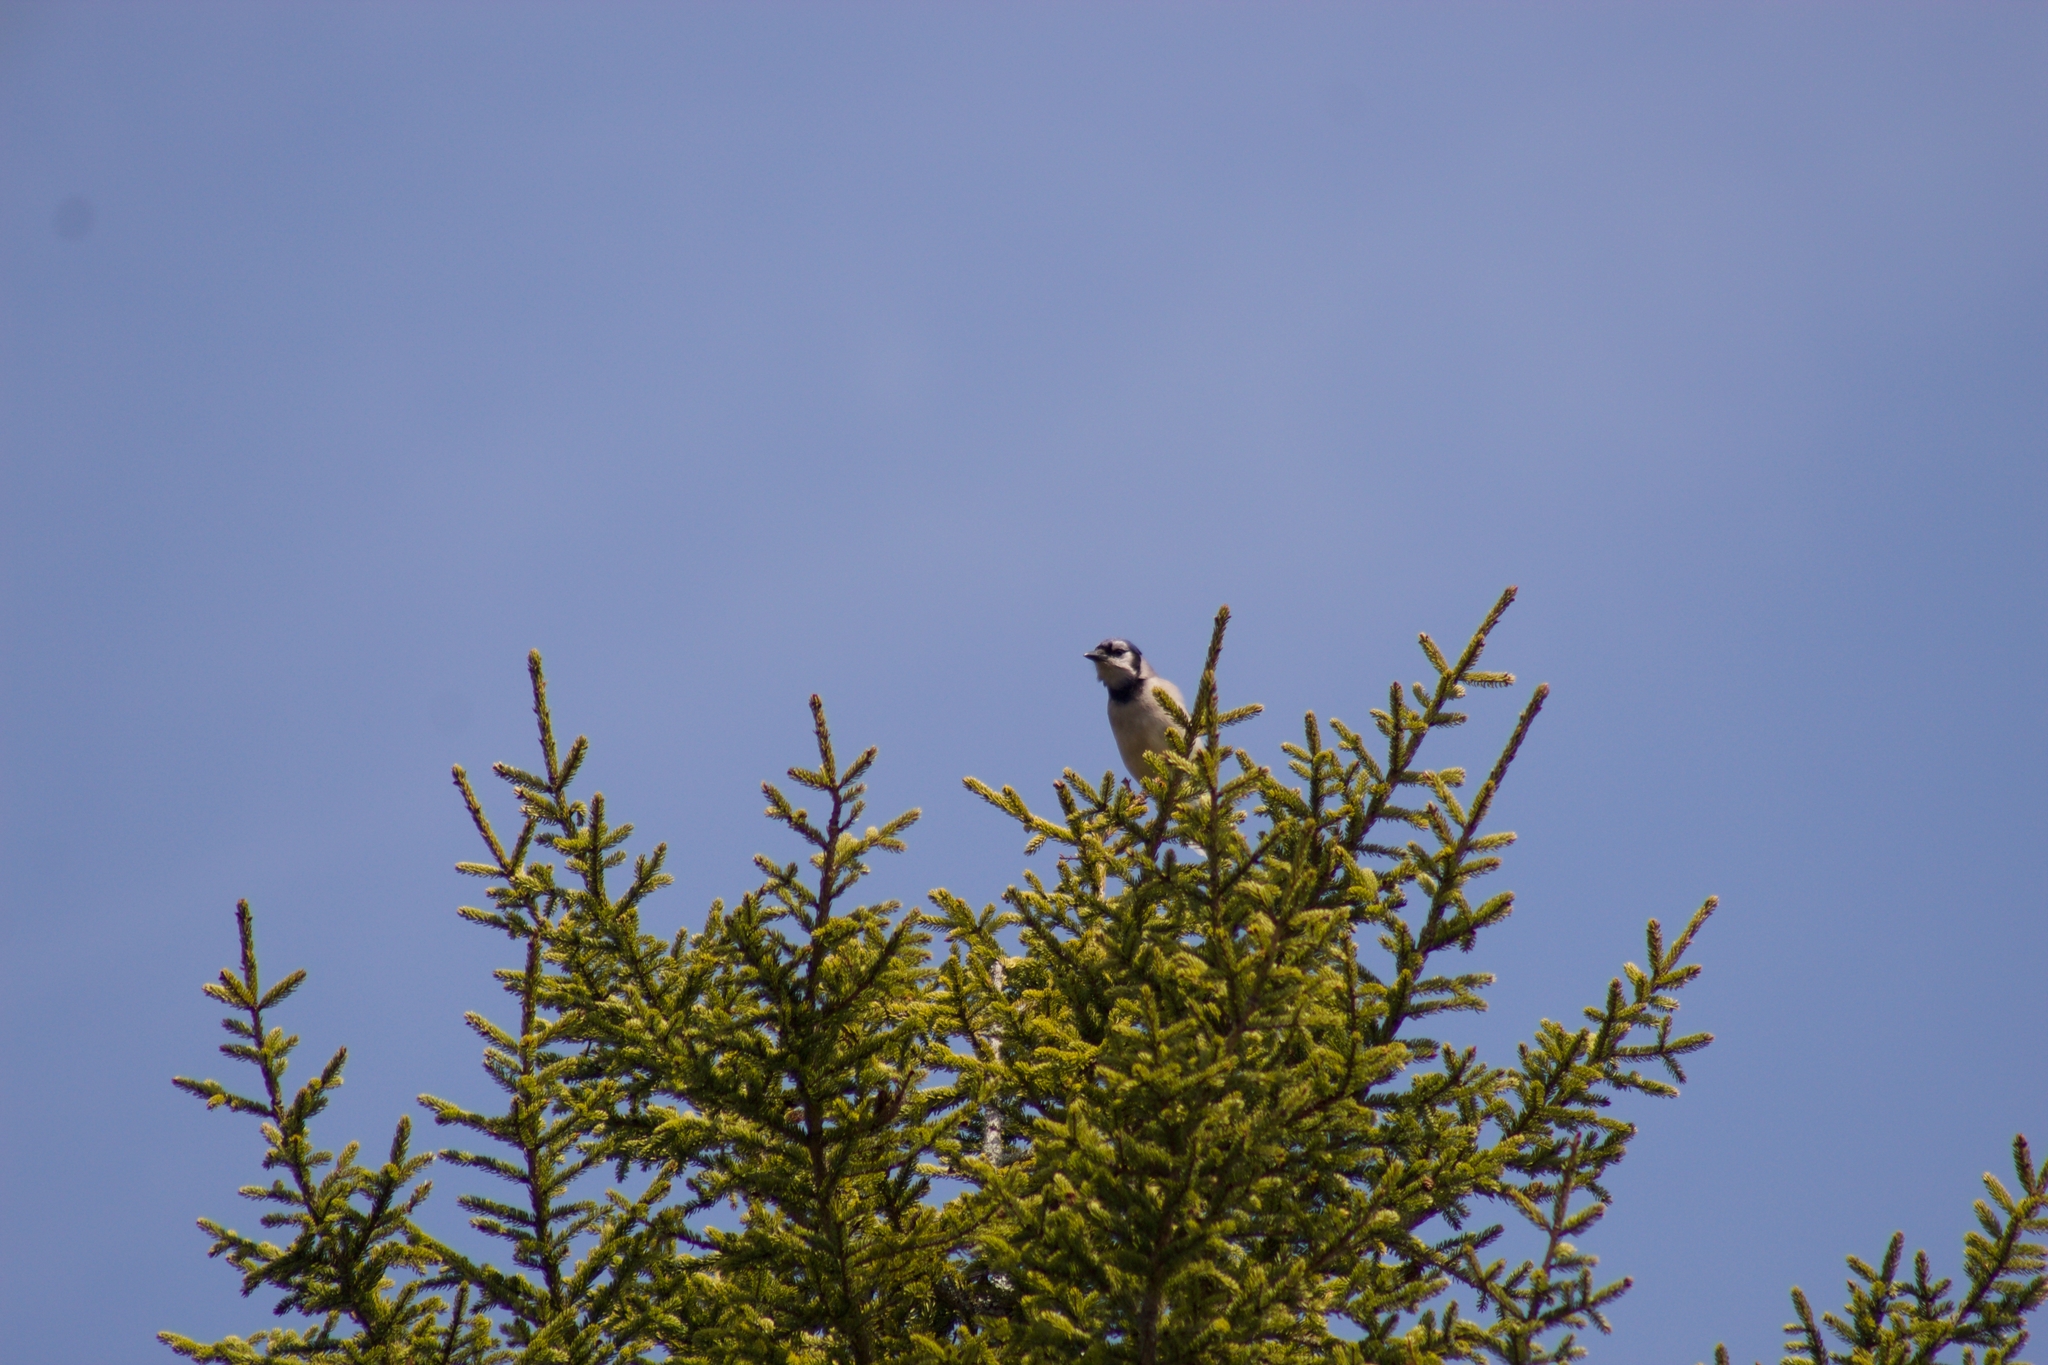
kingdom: Animalia
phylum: Chordata
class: Aves
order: Passeriformes
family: Corvidae
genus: Cyanocitta
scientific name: Cyanocitta cristata
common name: Blue jay
